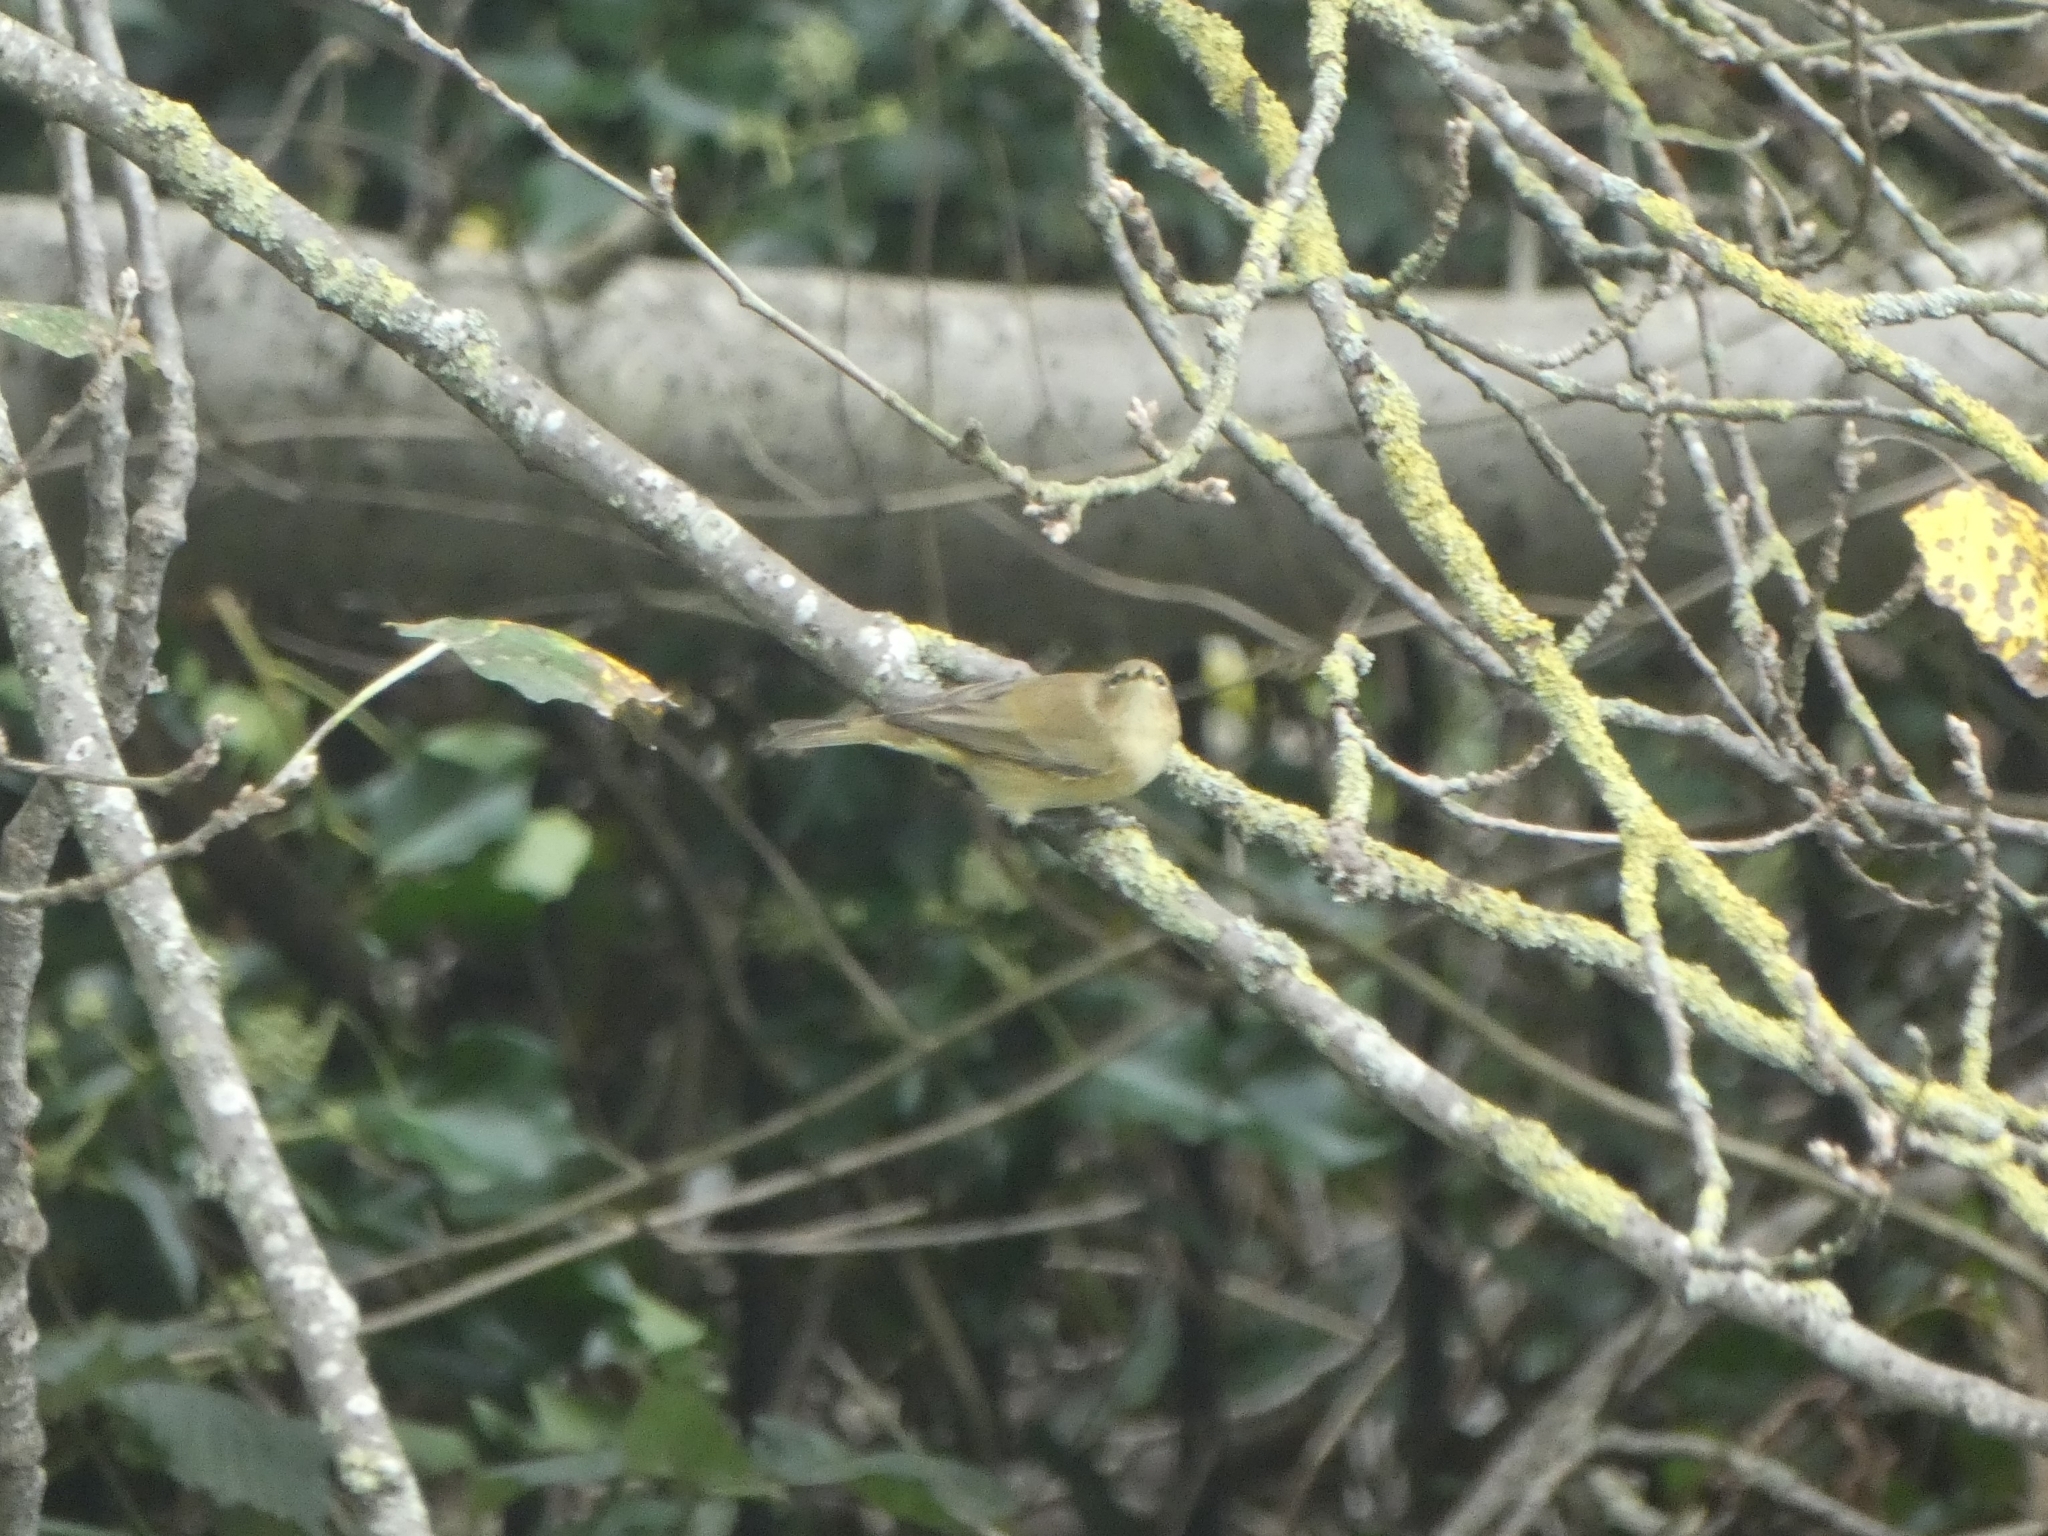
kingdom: Animalia
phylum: Chordata
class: Aves
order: Passeriformes
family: Phylloscopidae
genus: Phylloscopus
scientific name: Phylloscopus collybita
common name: Common chiffchaff
